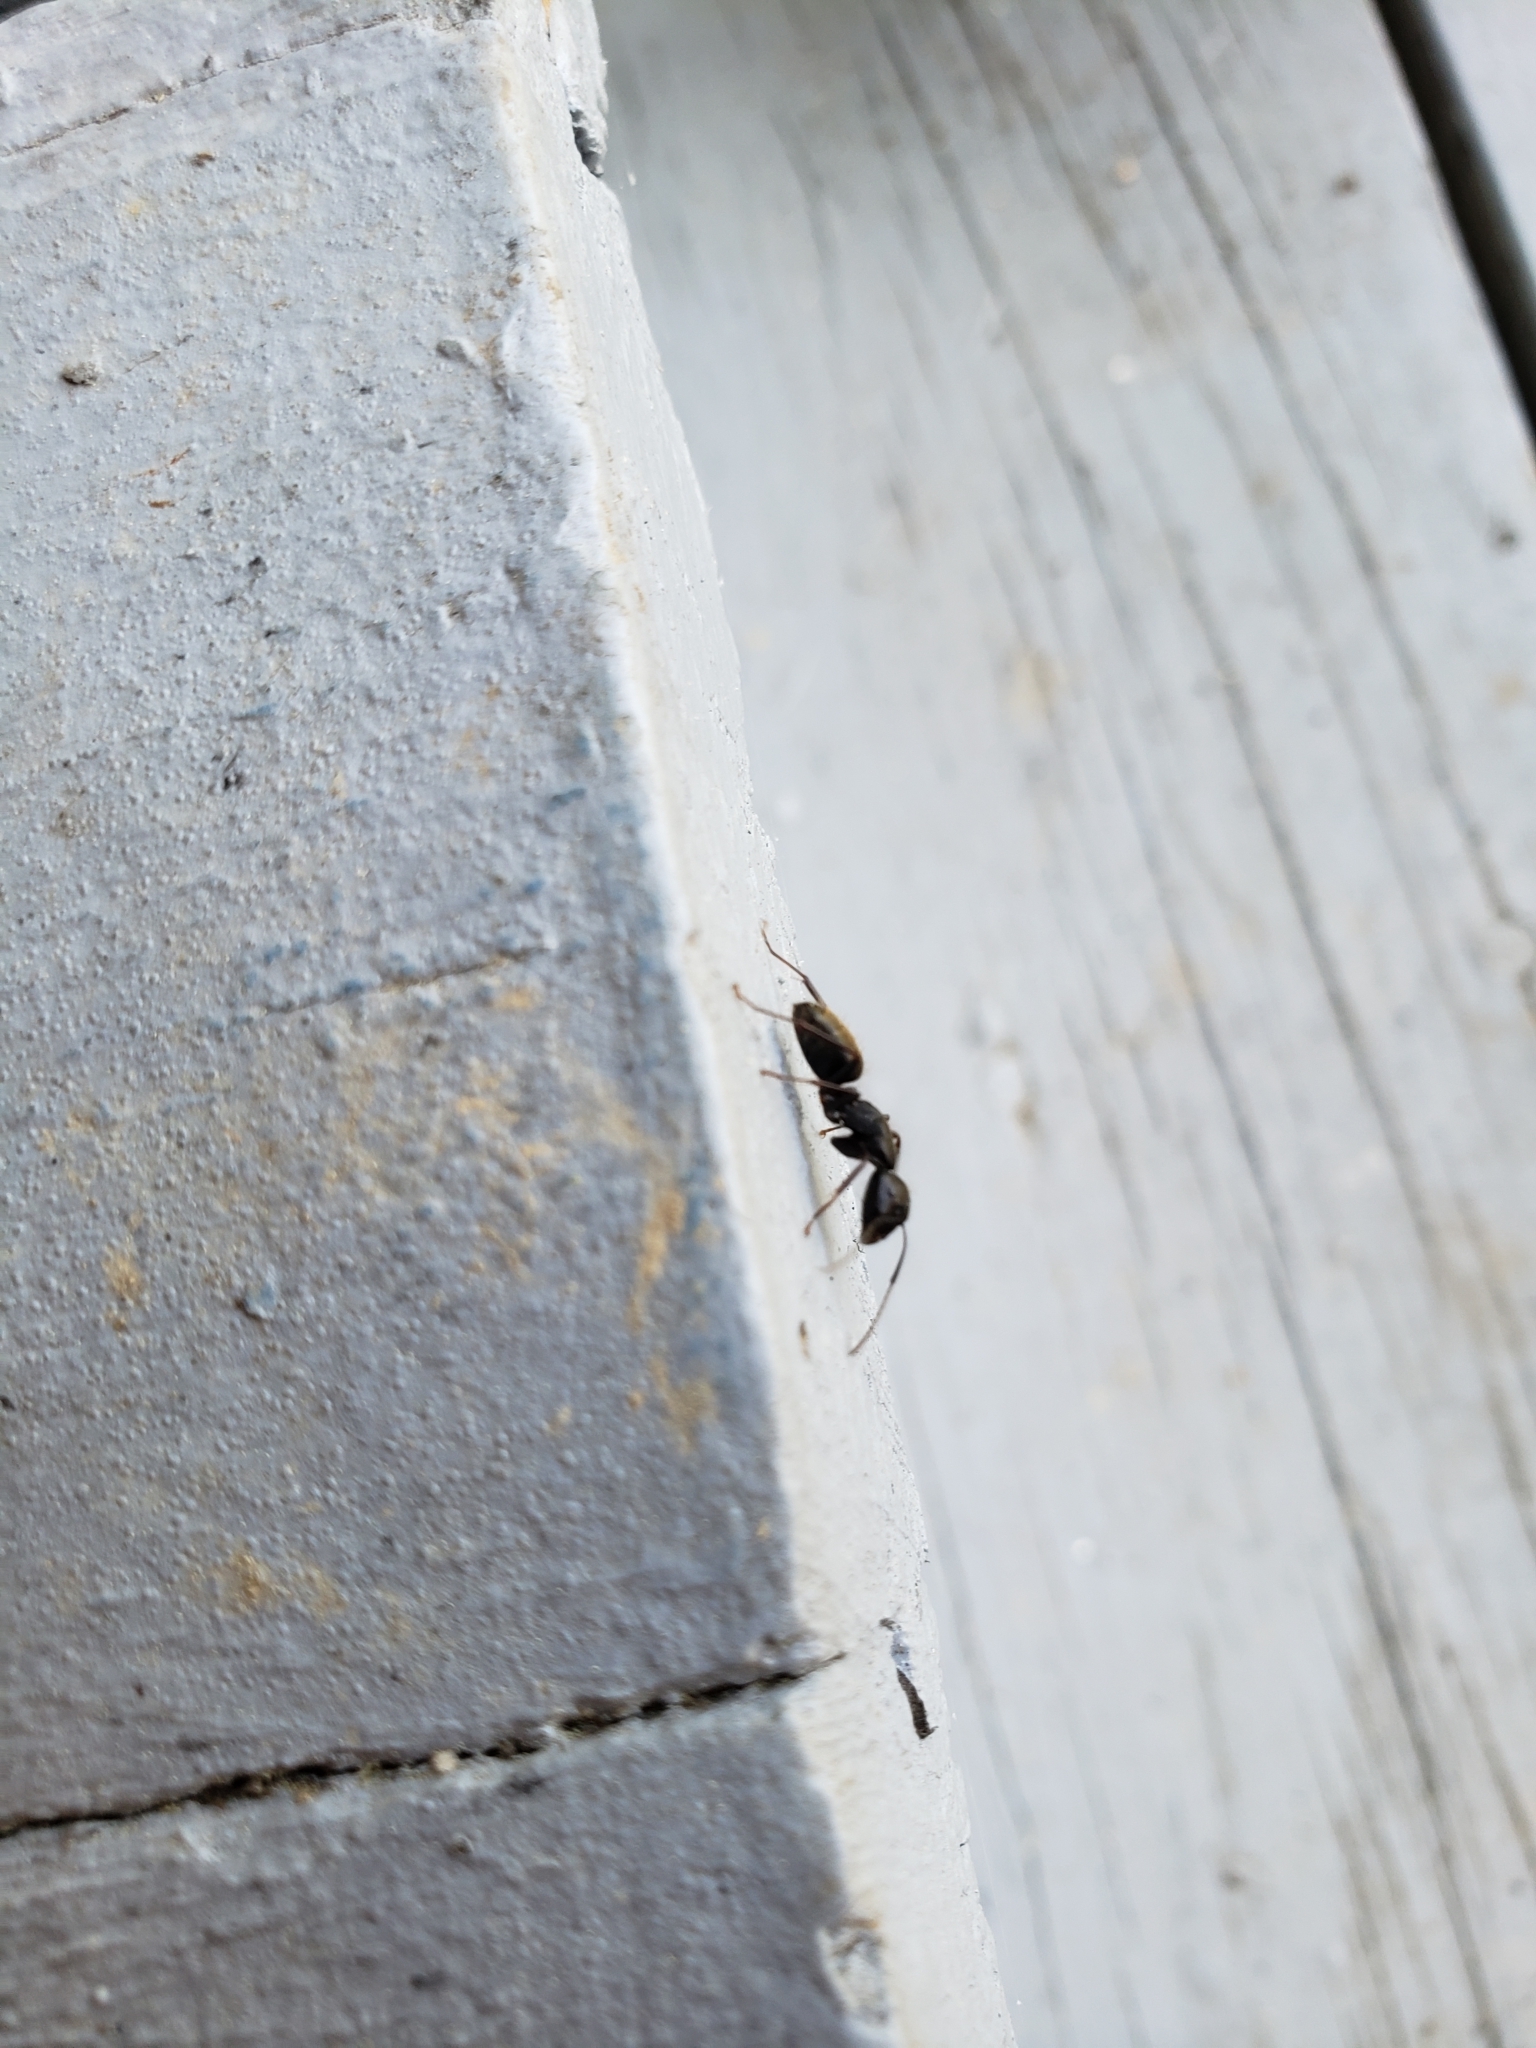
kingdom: Animalia
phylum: Arthropoda
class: Insecta
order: Hymenoptera
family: Formicidae
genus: Camponotus
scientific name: Camponotus pennsylvanicus
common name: Black carpenter ant
